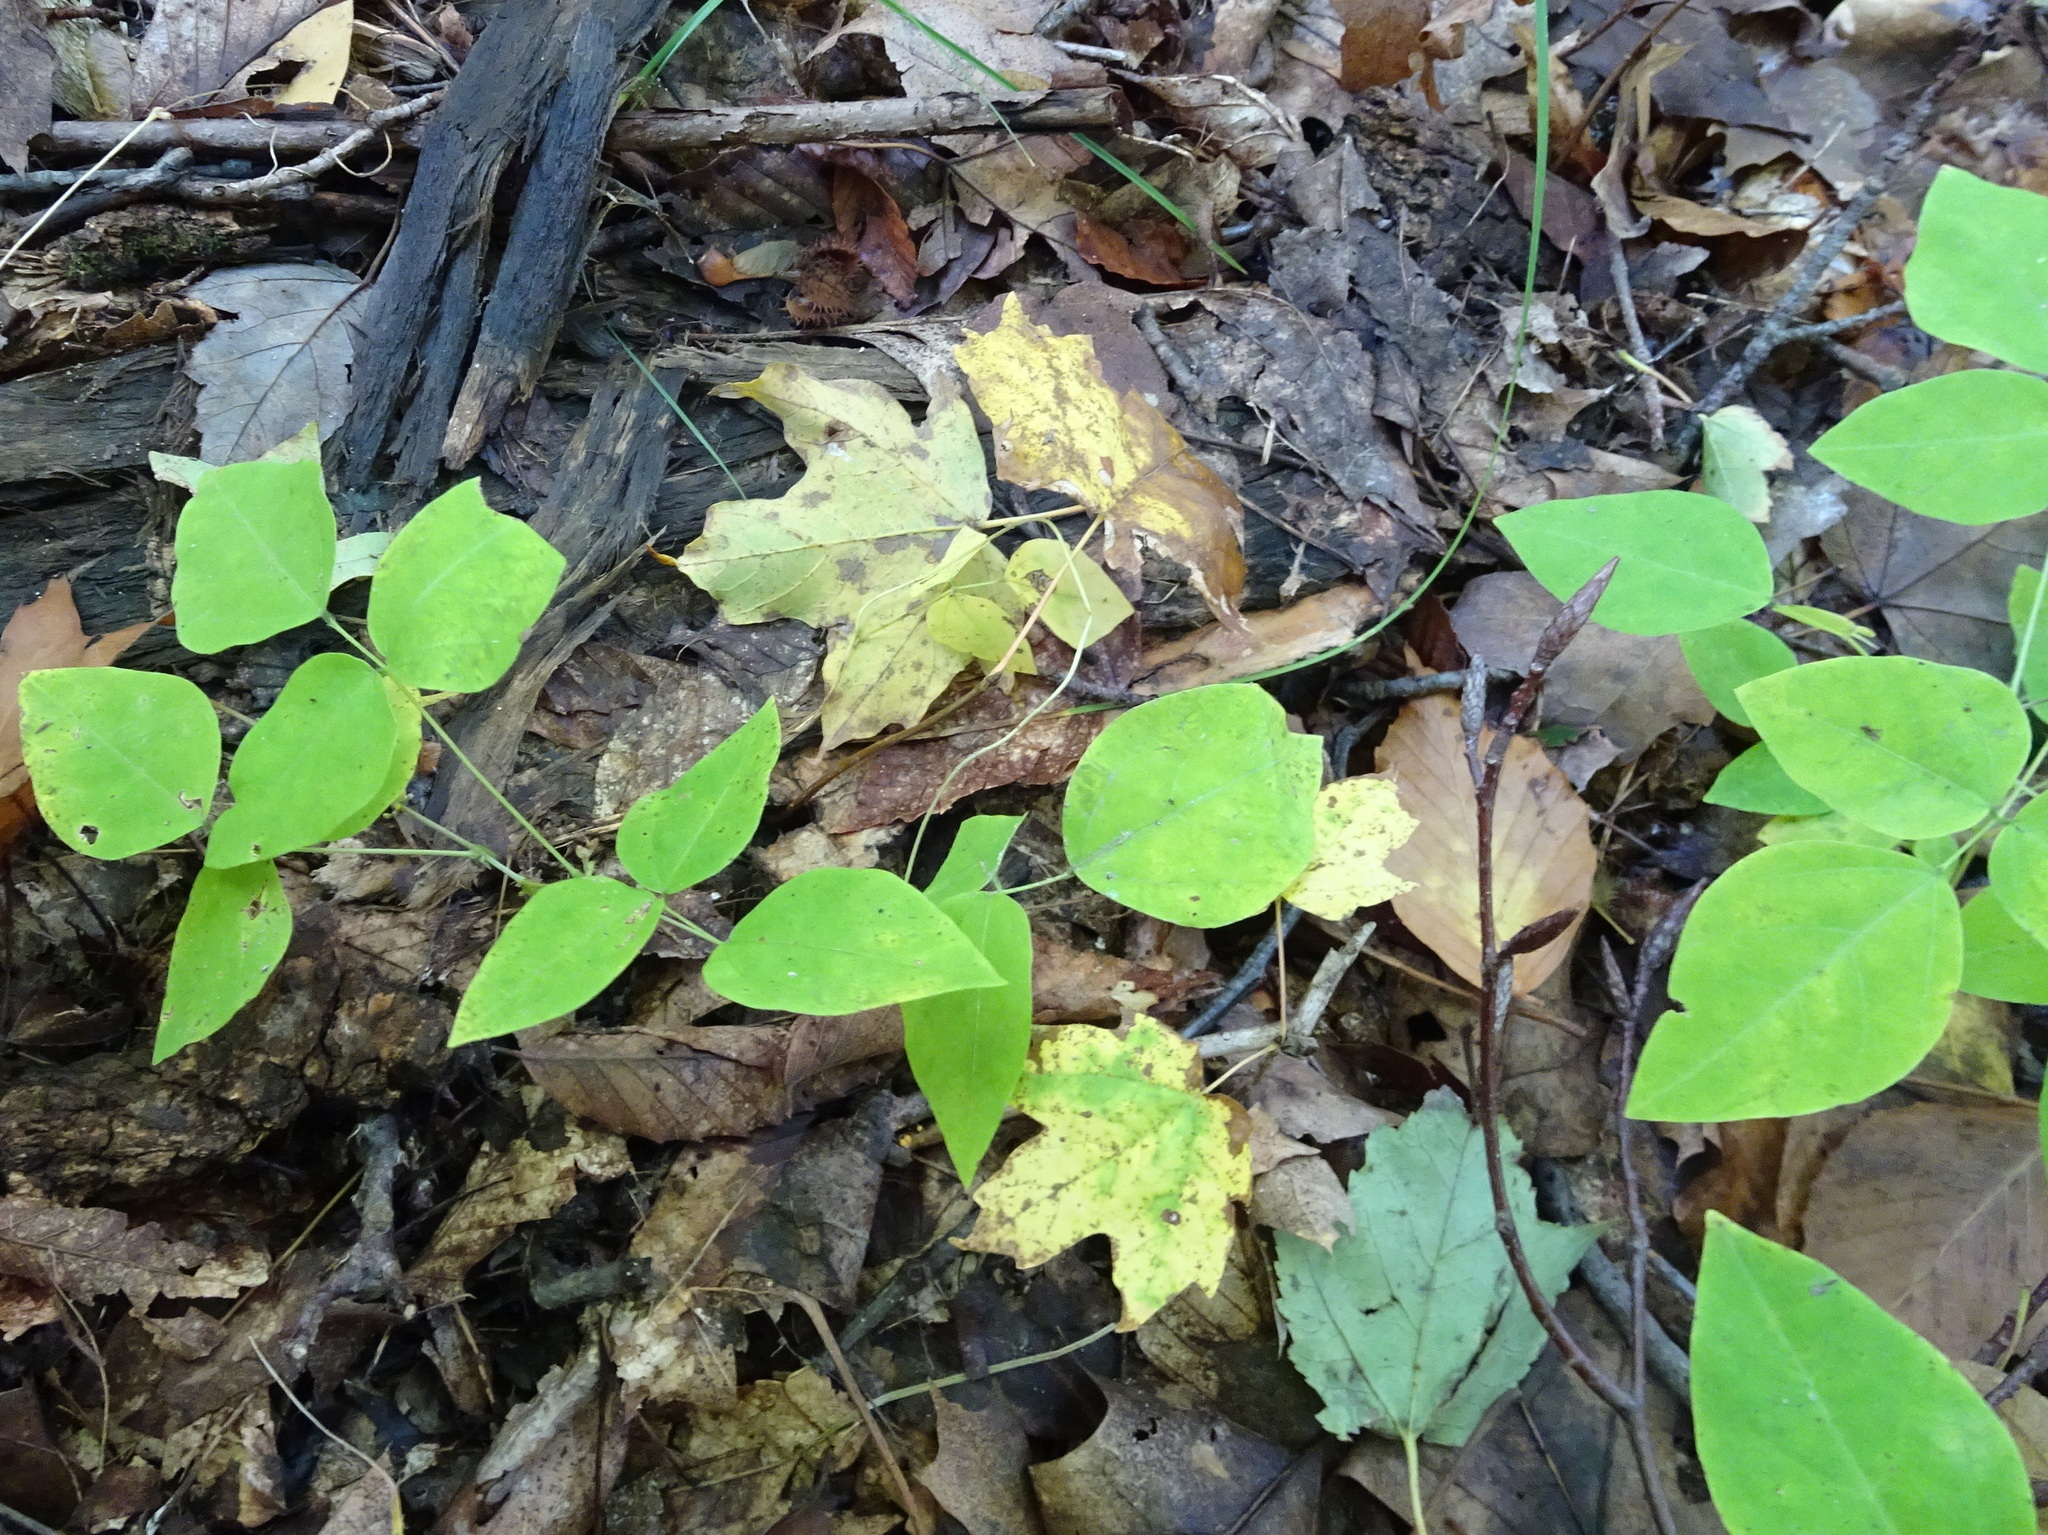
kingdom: Plantae
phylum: Tracheophyta
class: Magnoliopsida
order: Fabales
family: Fabaceae
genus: Amphicarpaea
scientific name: Amphicarpaea bracteata
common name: American hog peanut
